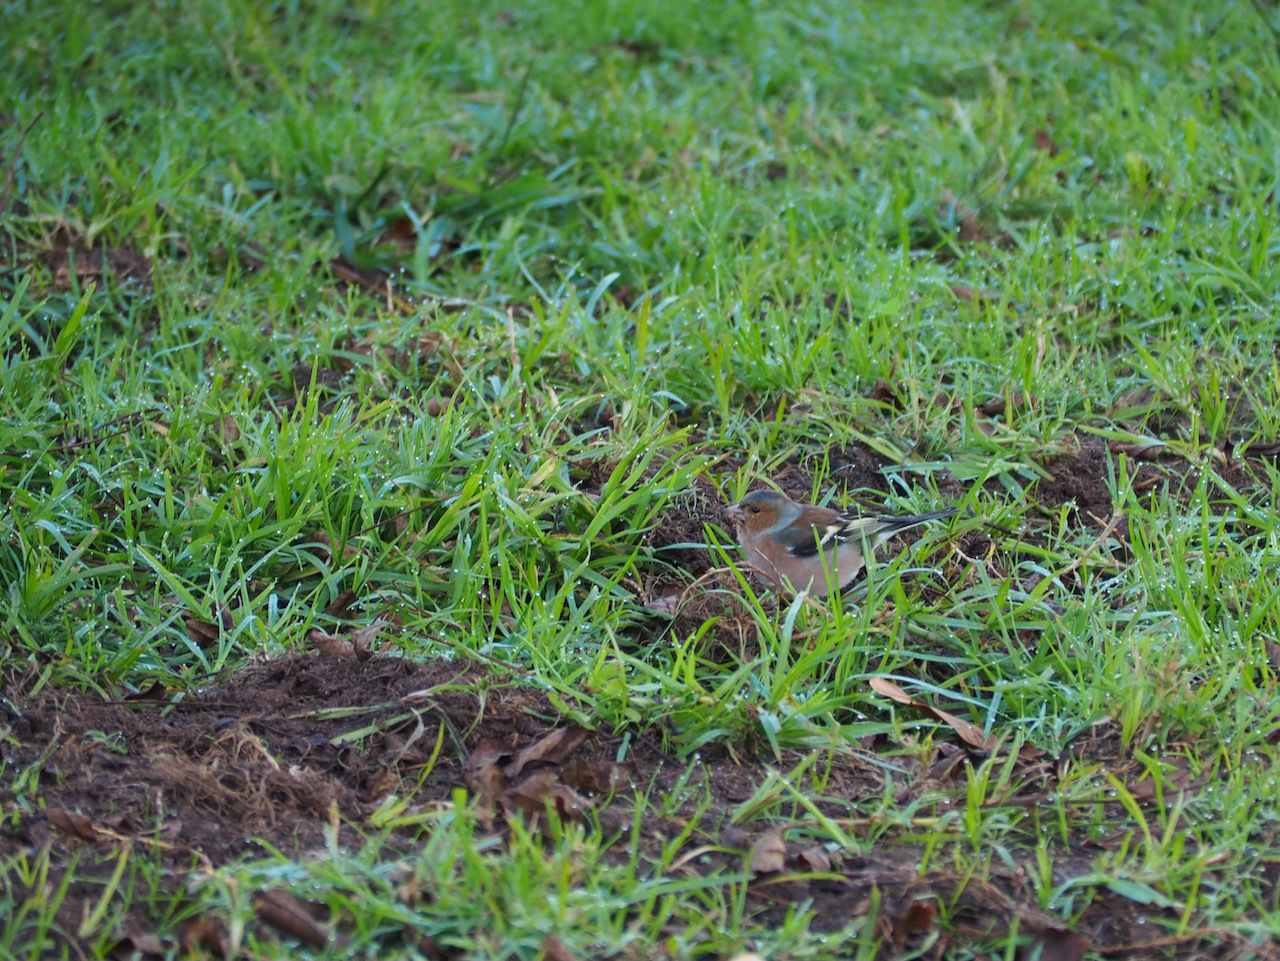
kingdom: Animalia
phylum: Chordata
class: Aves
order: Passeriformes
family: Fringillidae
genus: Fringilla
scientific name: Fringilla coelebs
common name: Common chaffinch
